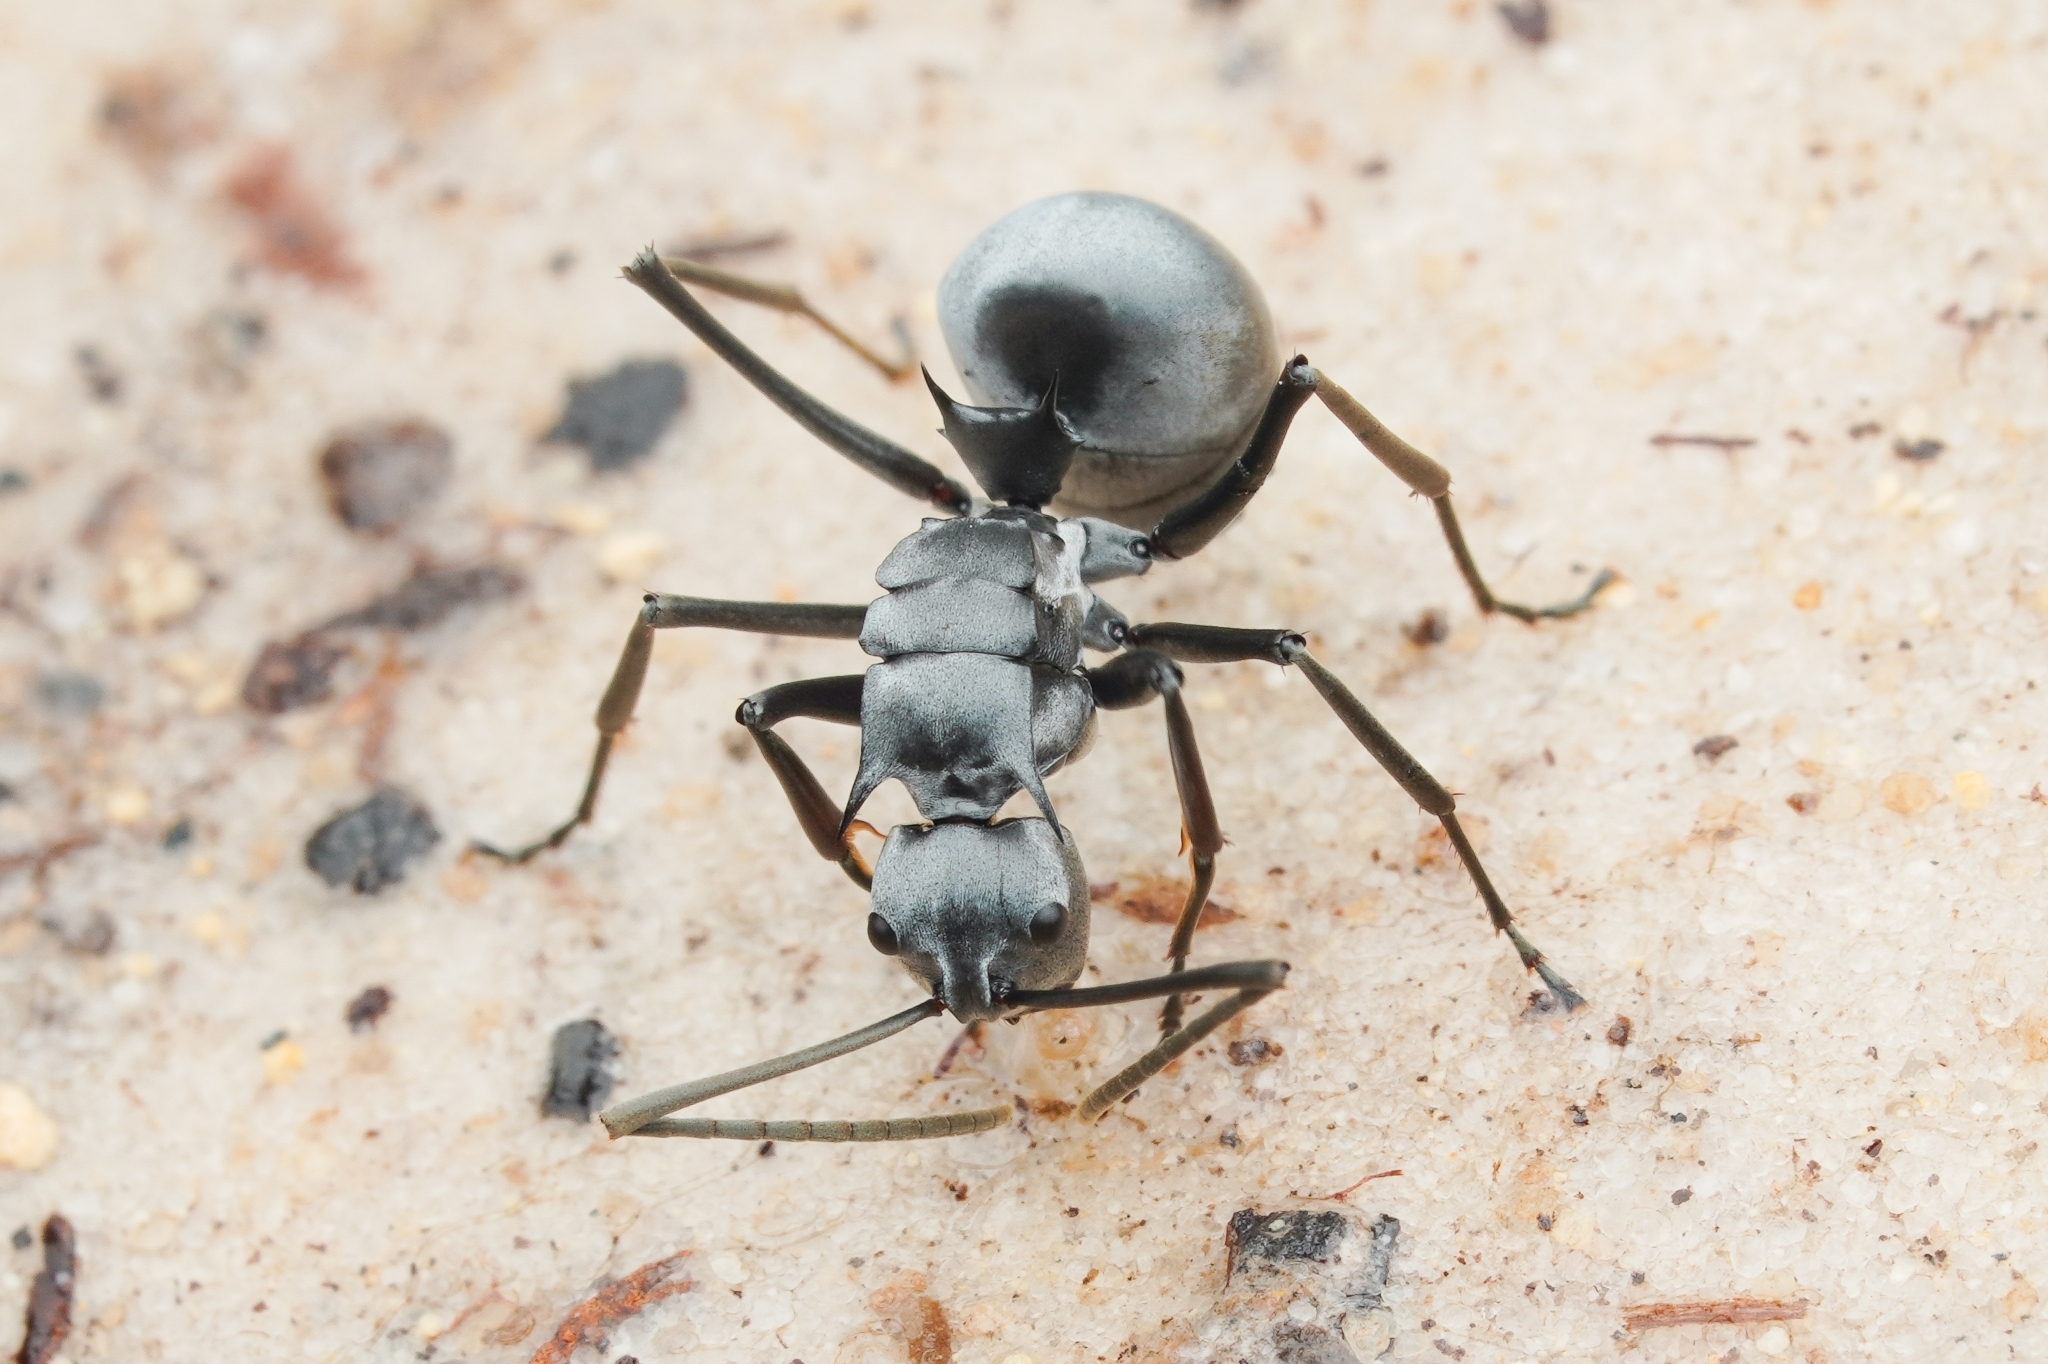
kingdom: Animalia
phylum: Arthropoda
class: Insecta
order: Hymenoptera
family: Formicidae
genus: Polyrhachis
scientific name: Polyrhachis pruinosa
